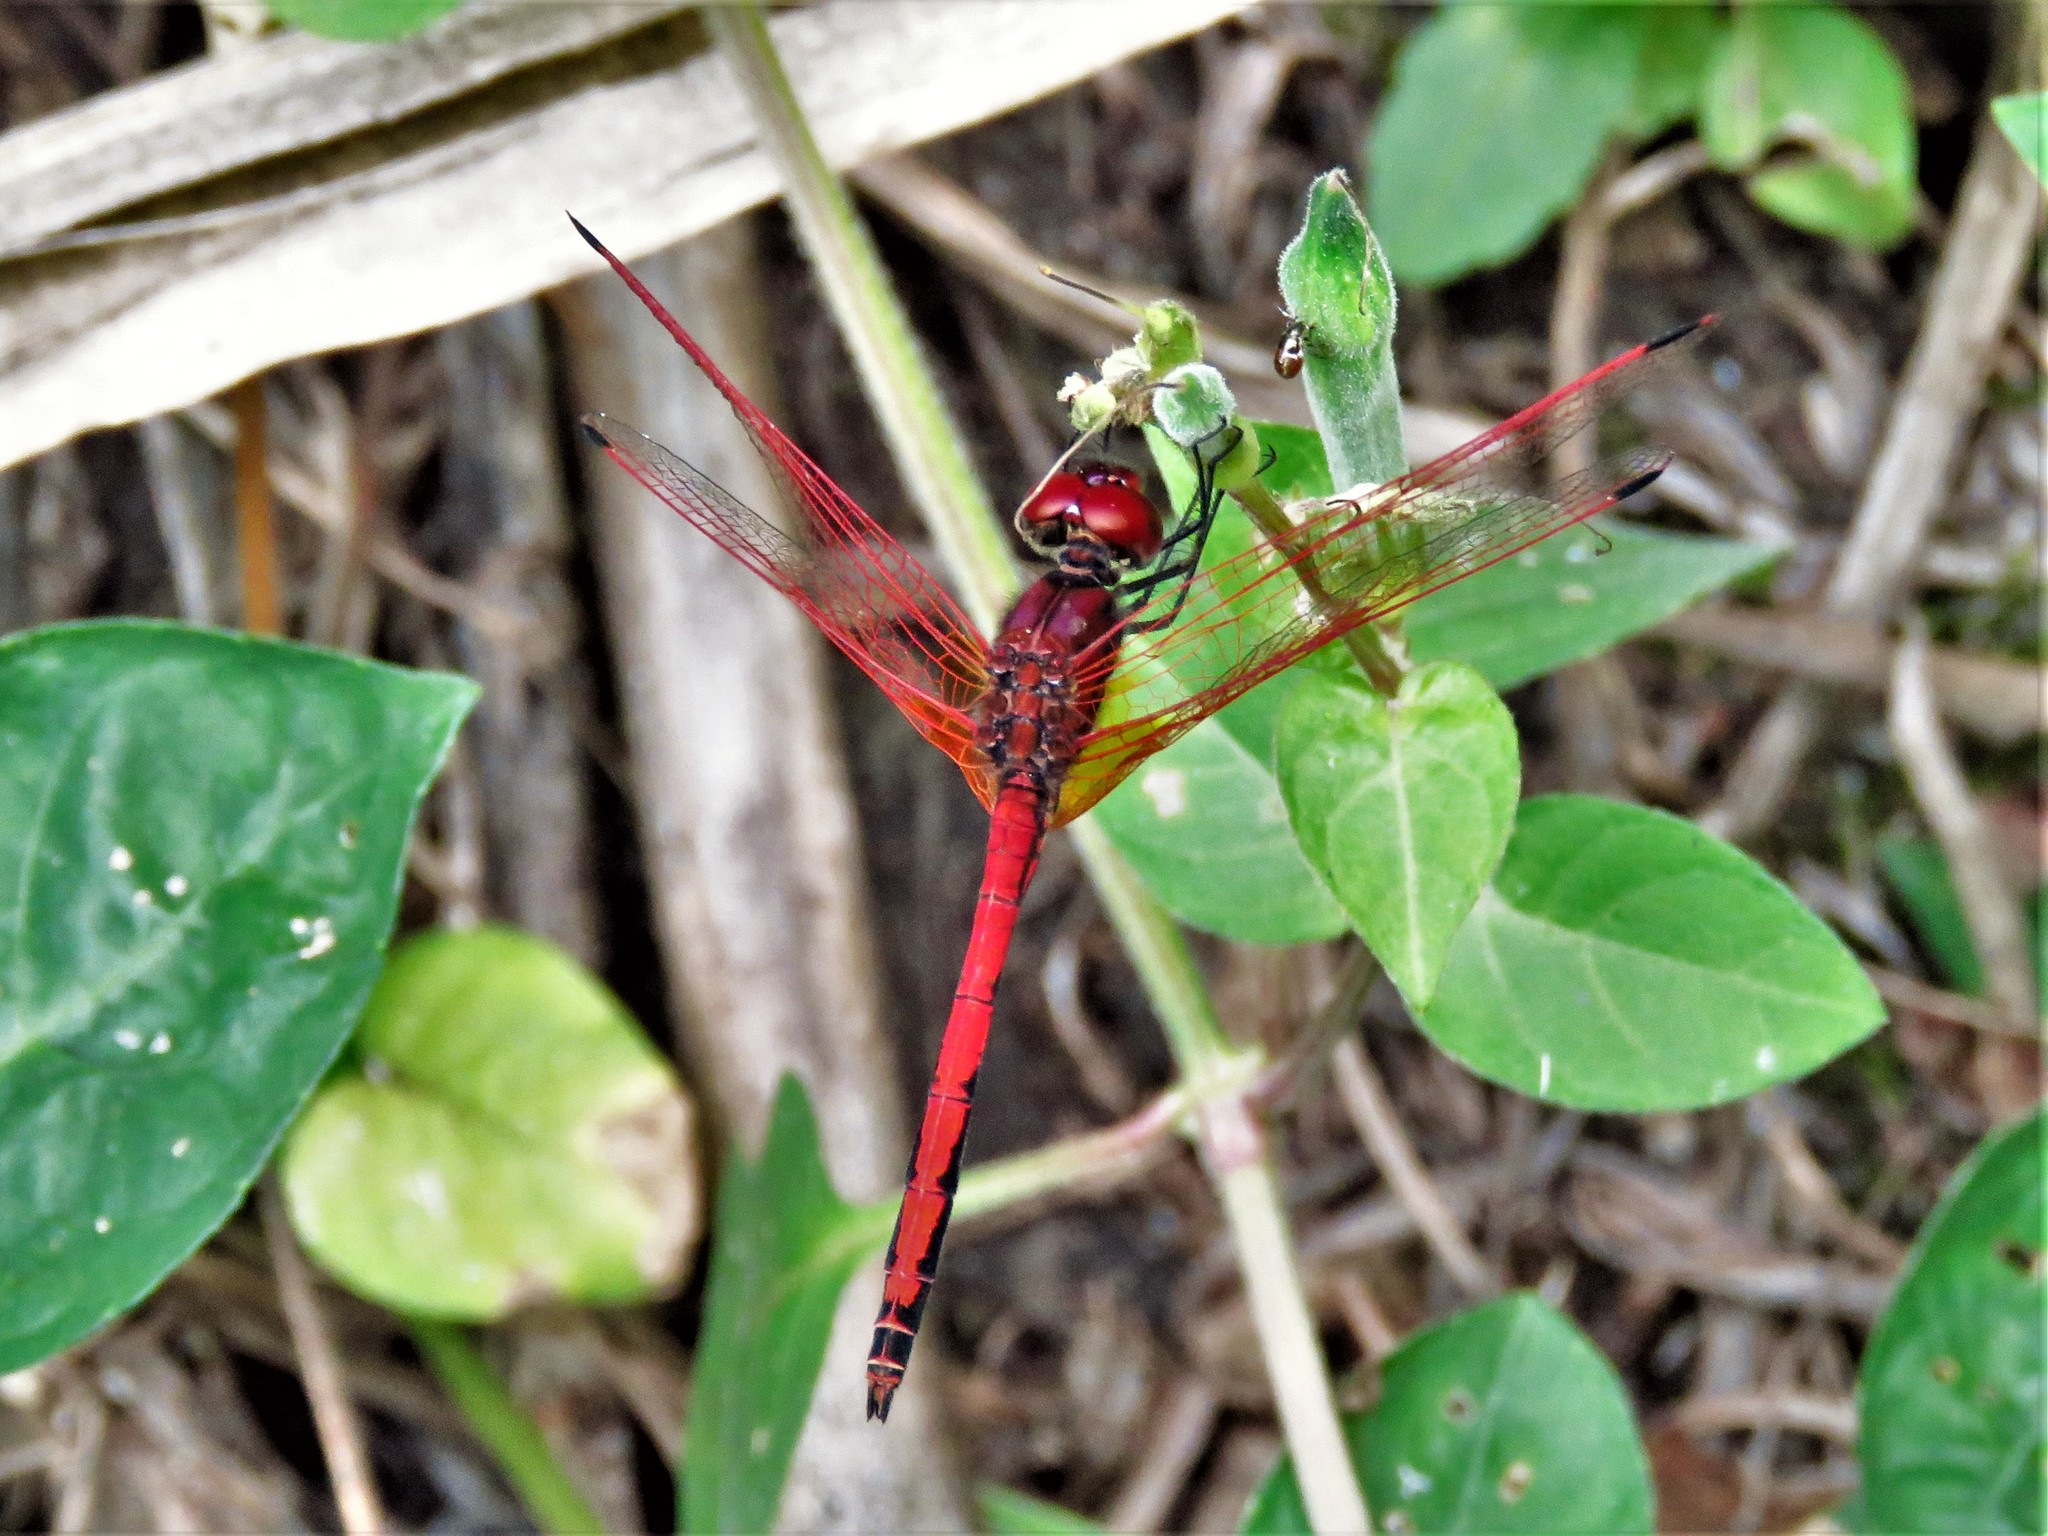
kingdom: Animalia
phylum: Arthropoda
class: Insecta
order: Odonata
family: Libellulidae
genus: Trithemis
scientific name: Trithemis arteriosa
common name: Red-veined dropwing
